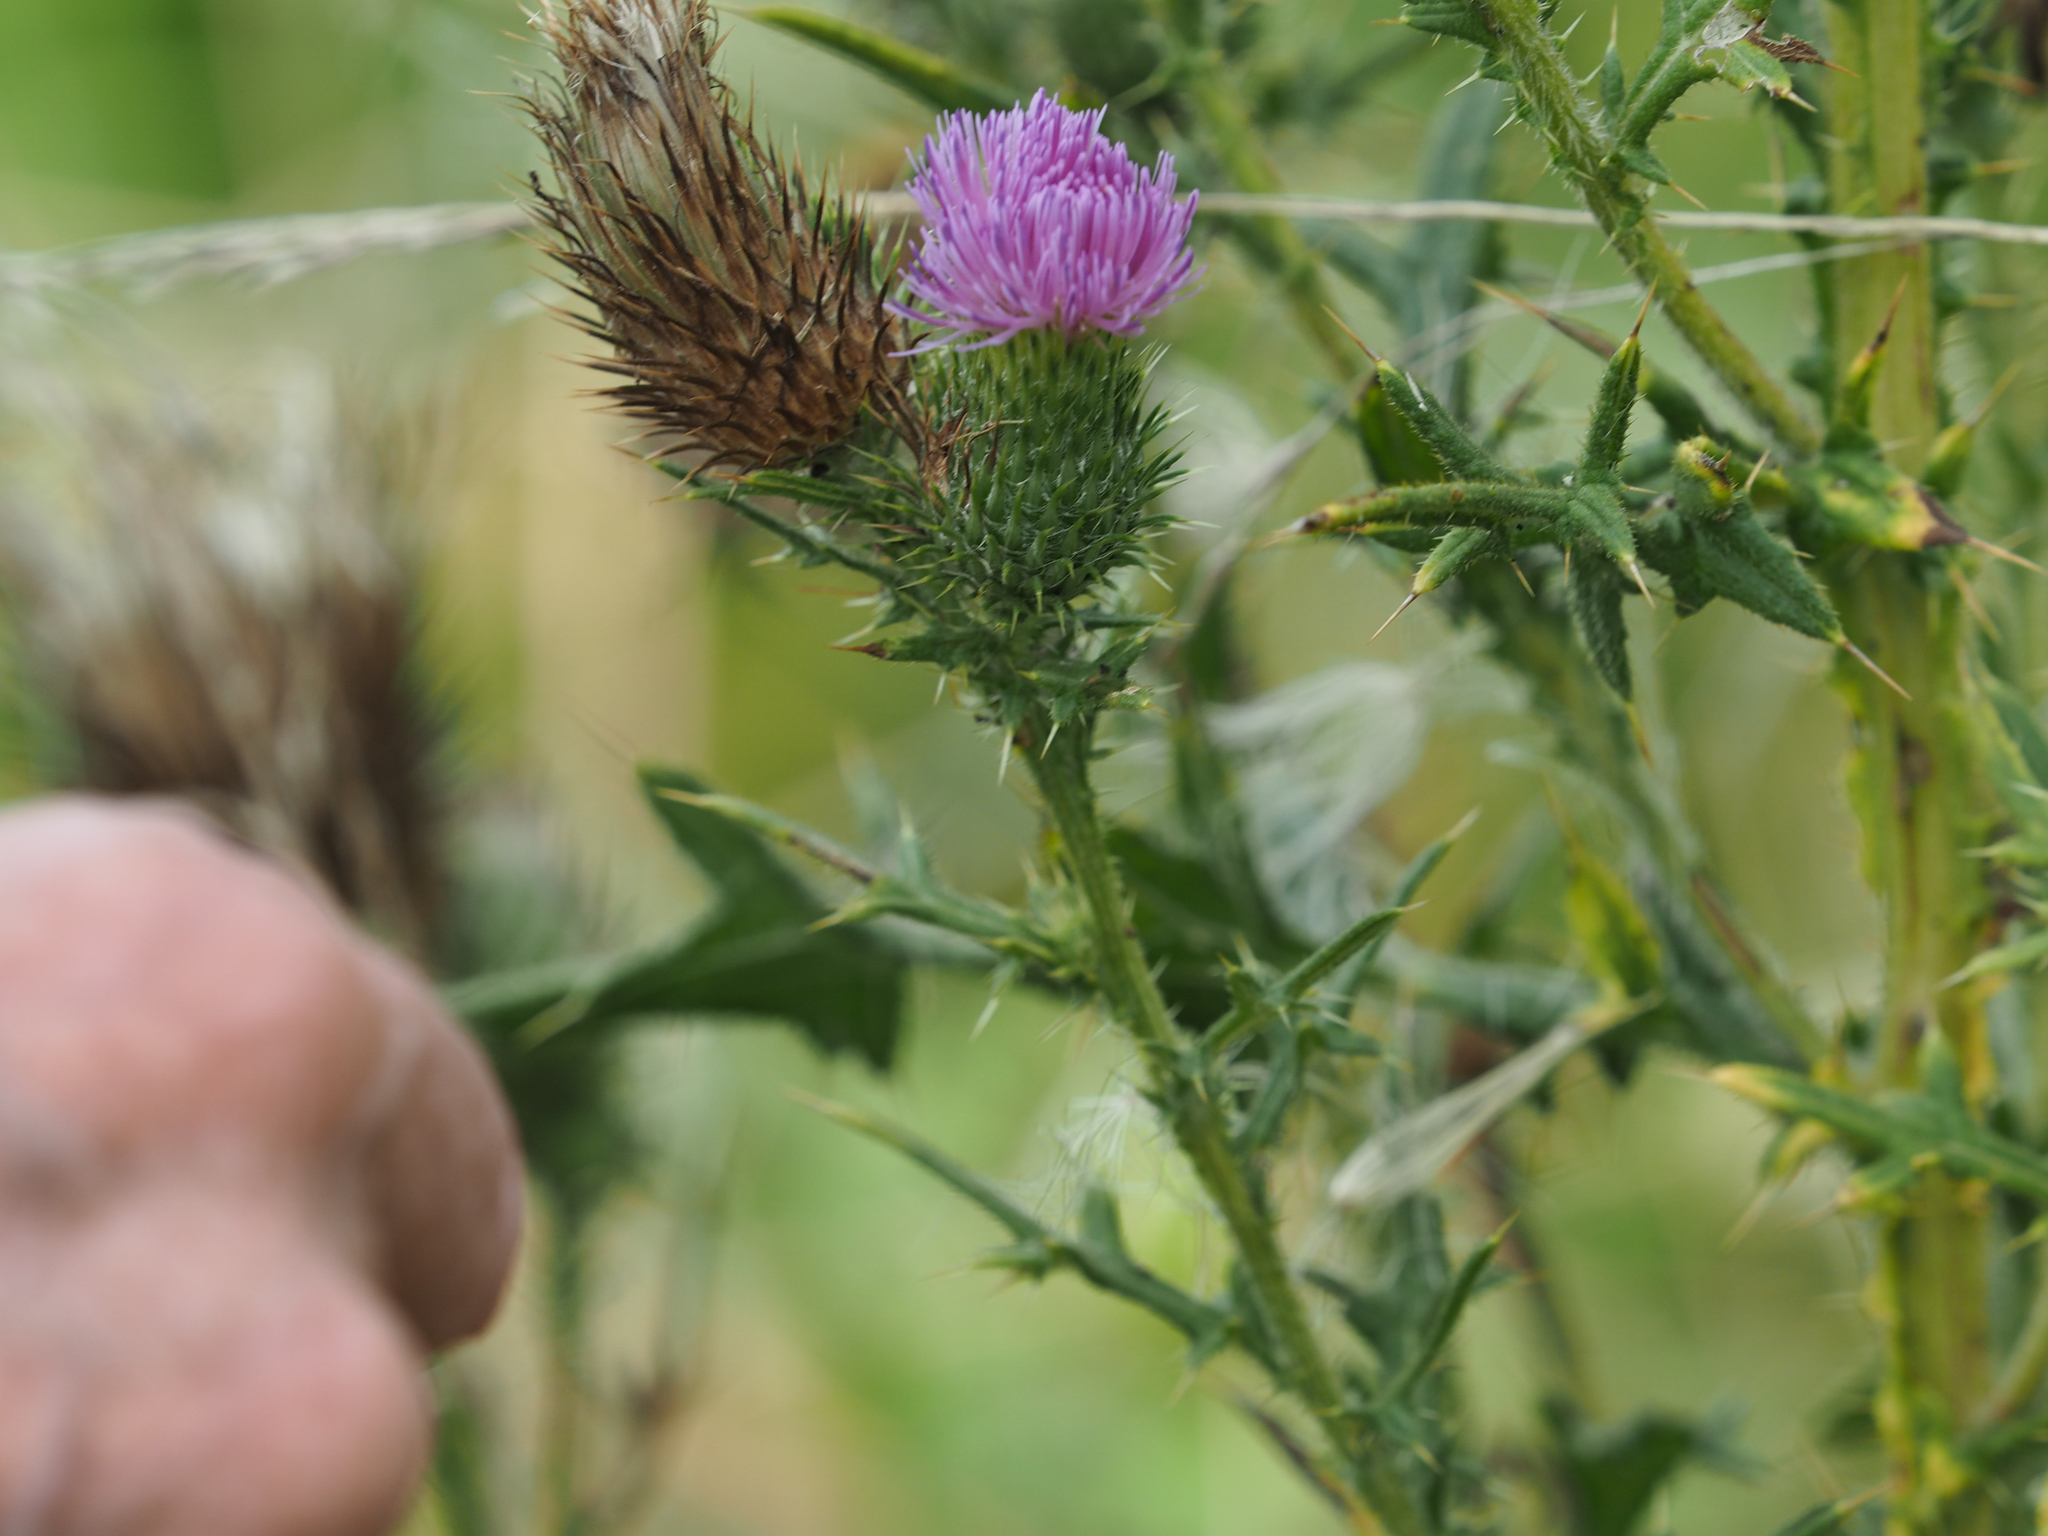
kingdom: Plantae
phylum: Tracheophyta
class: Magnoliopsida
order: Asterales
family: Asteraceae
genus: Cirsium
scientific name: Cirsium vulgare
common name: Bull thistle
